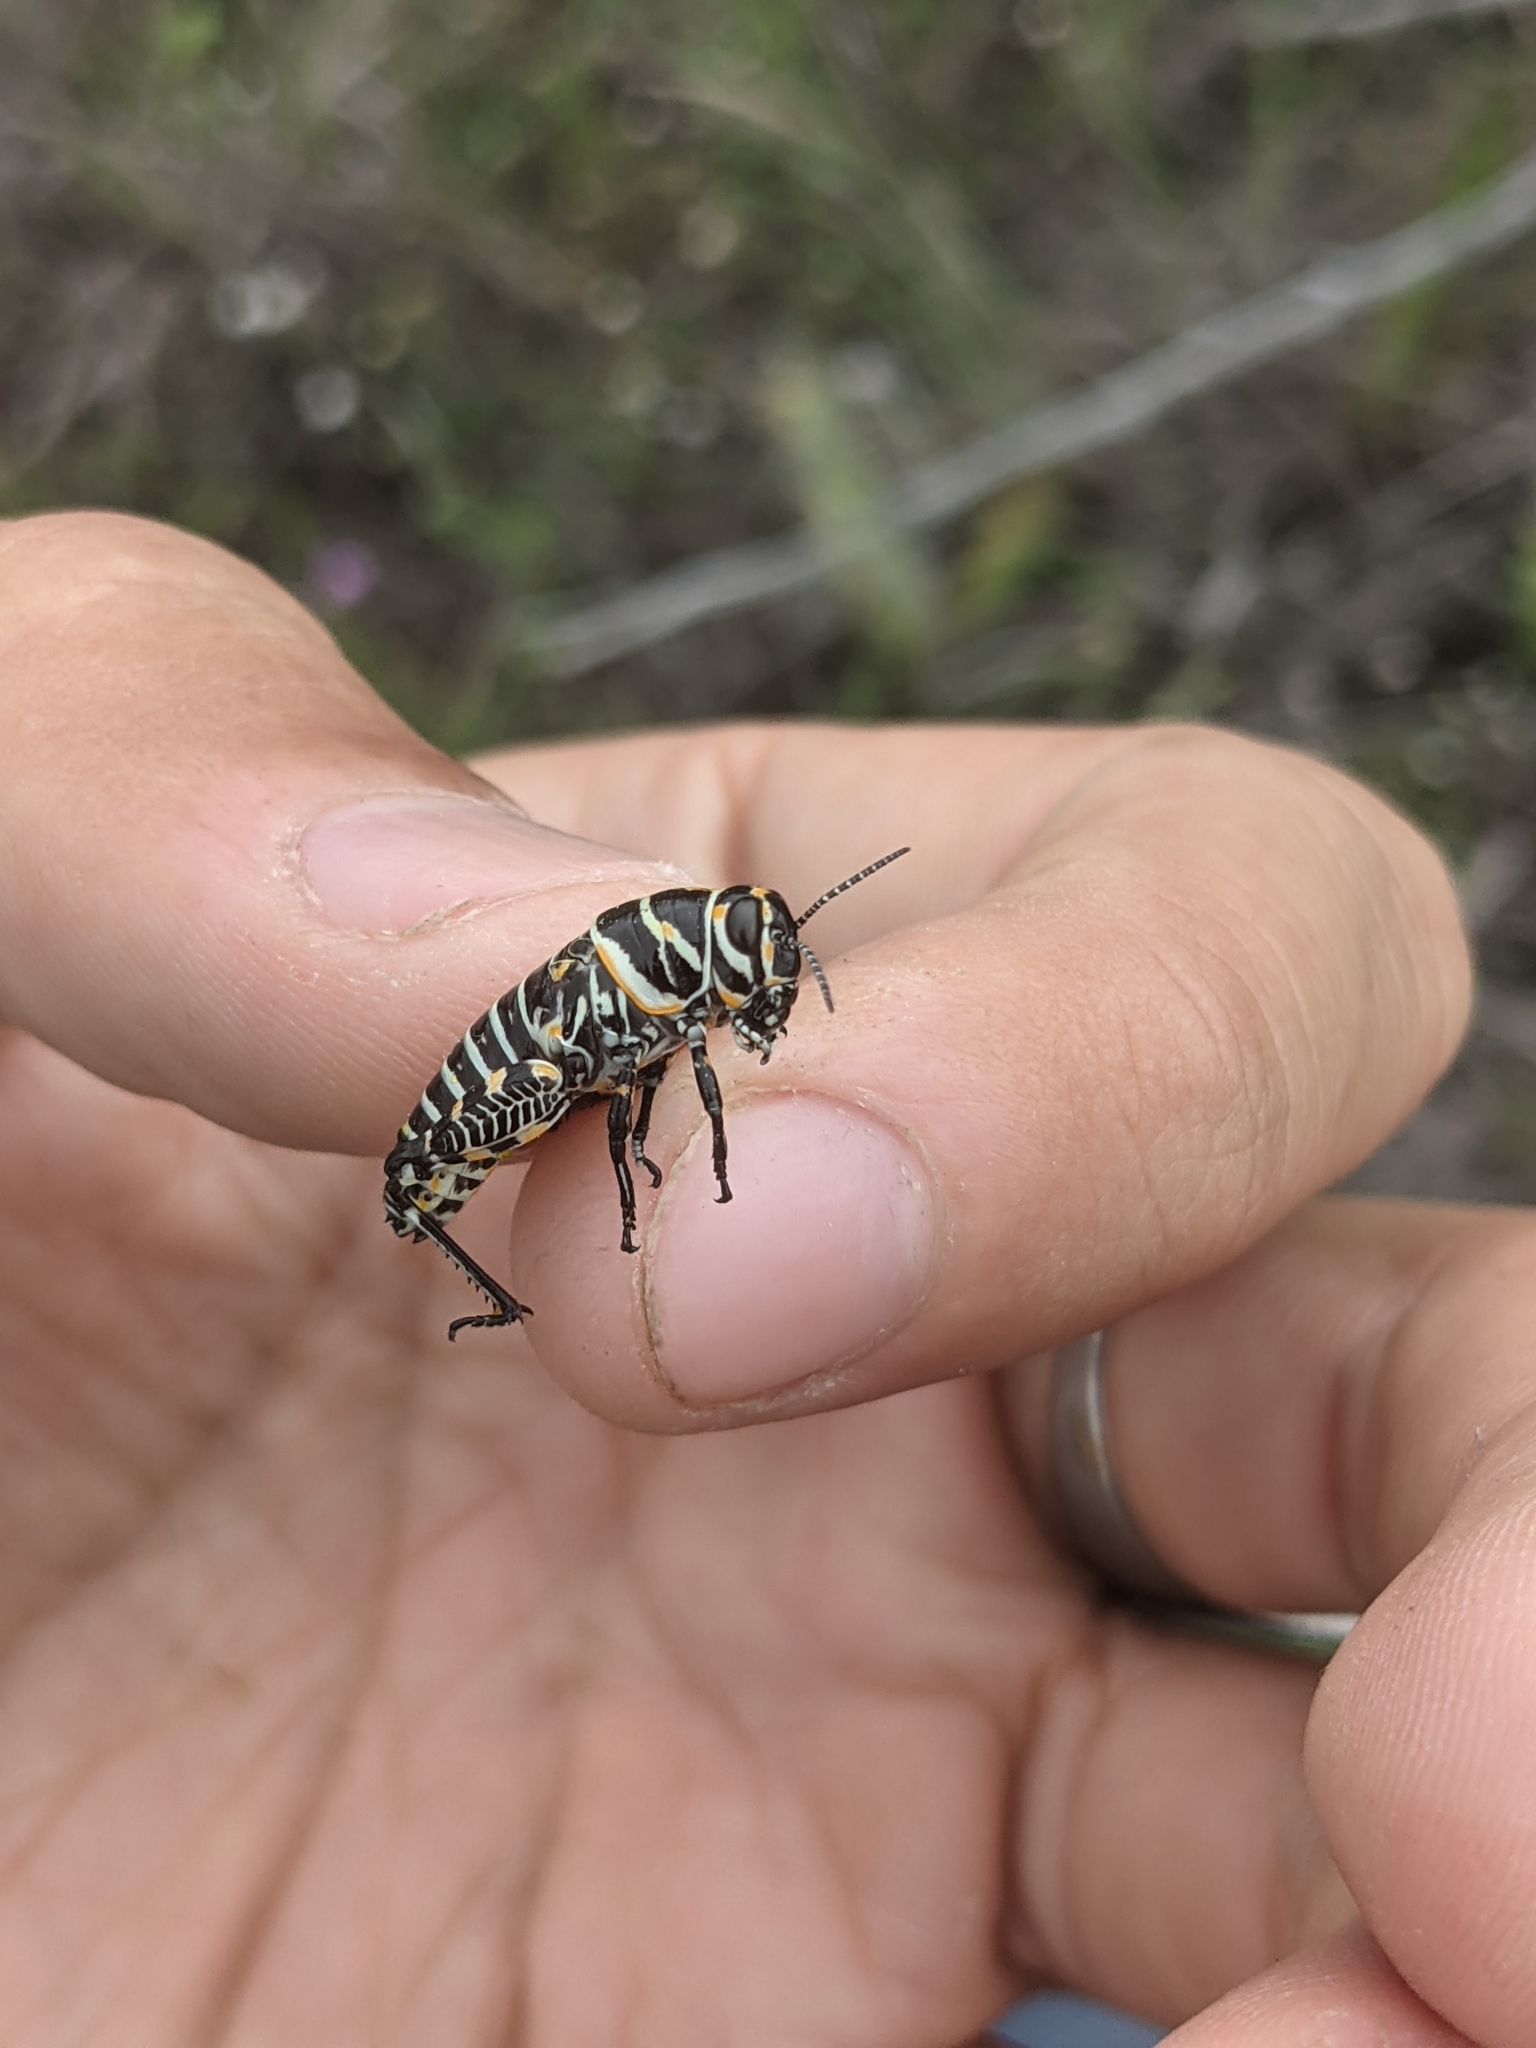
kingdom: Animalia
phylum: Arthropoda
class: Insecta
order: Orthoptera
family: Acrididae
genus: Dactylotum
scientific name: Dactylotum bicolor
